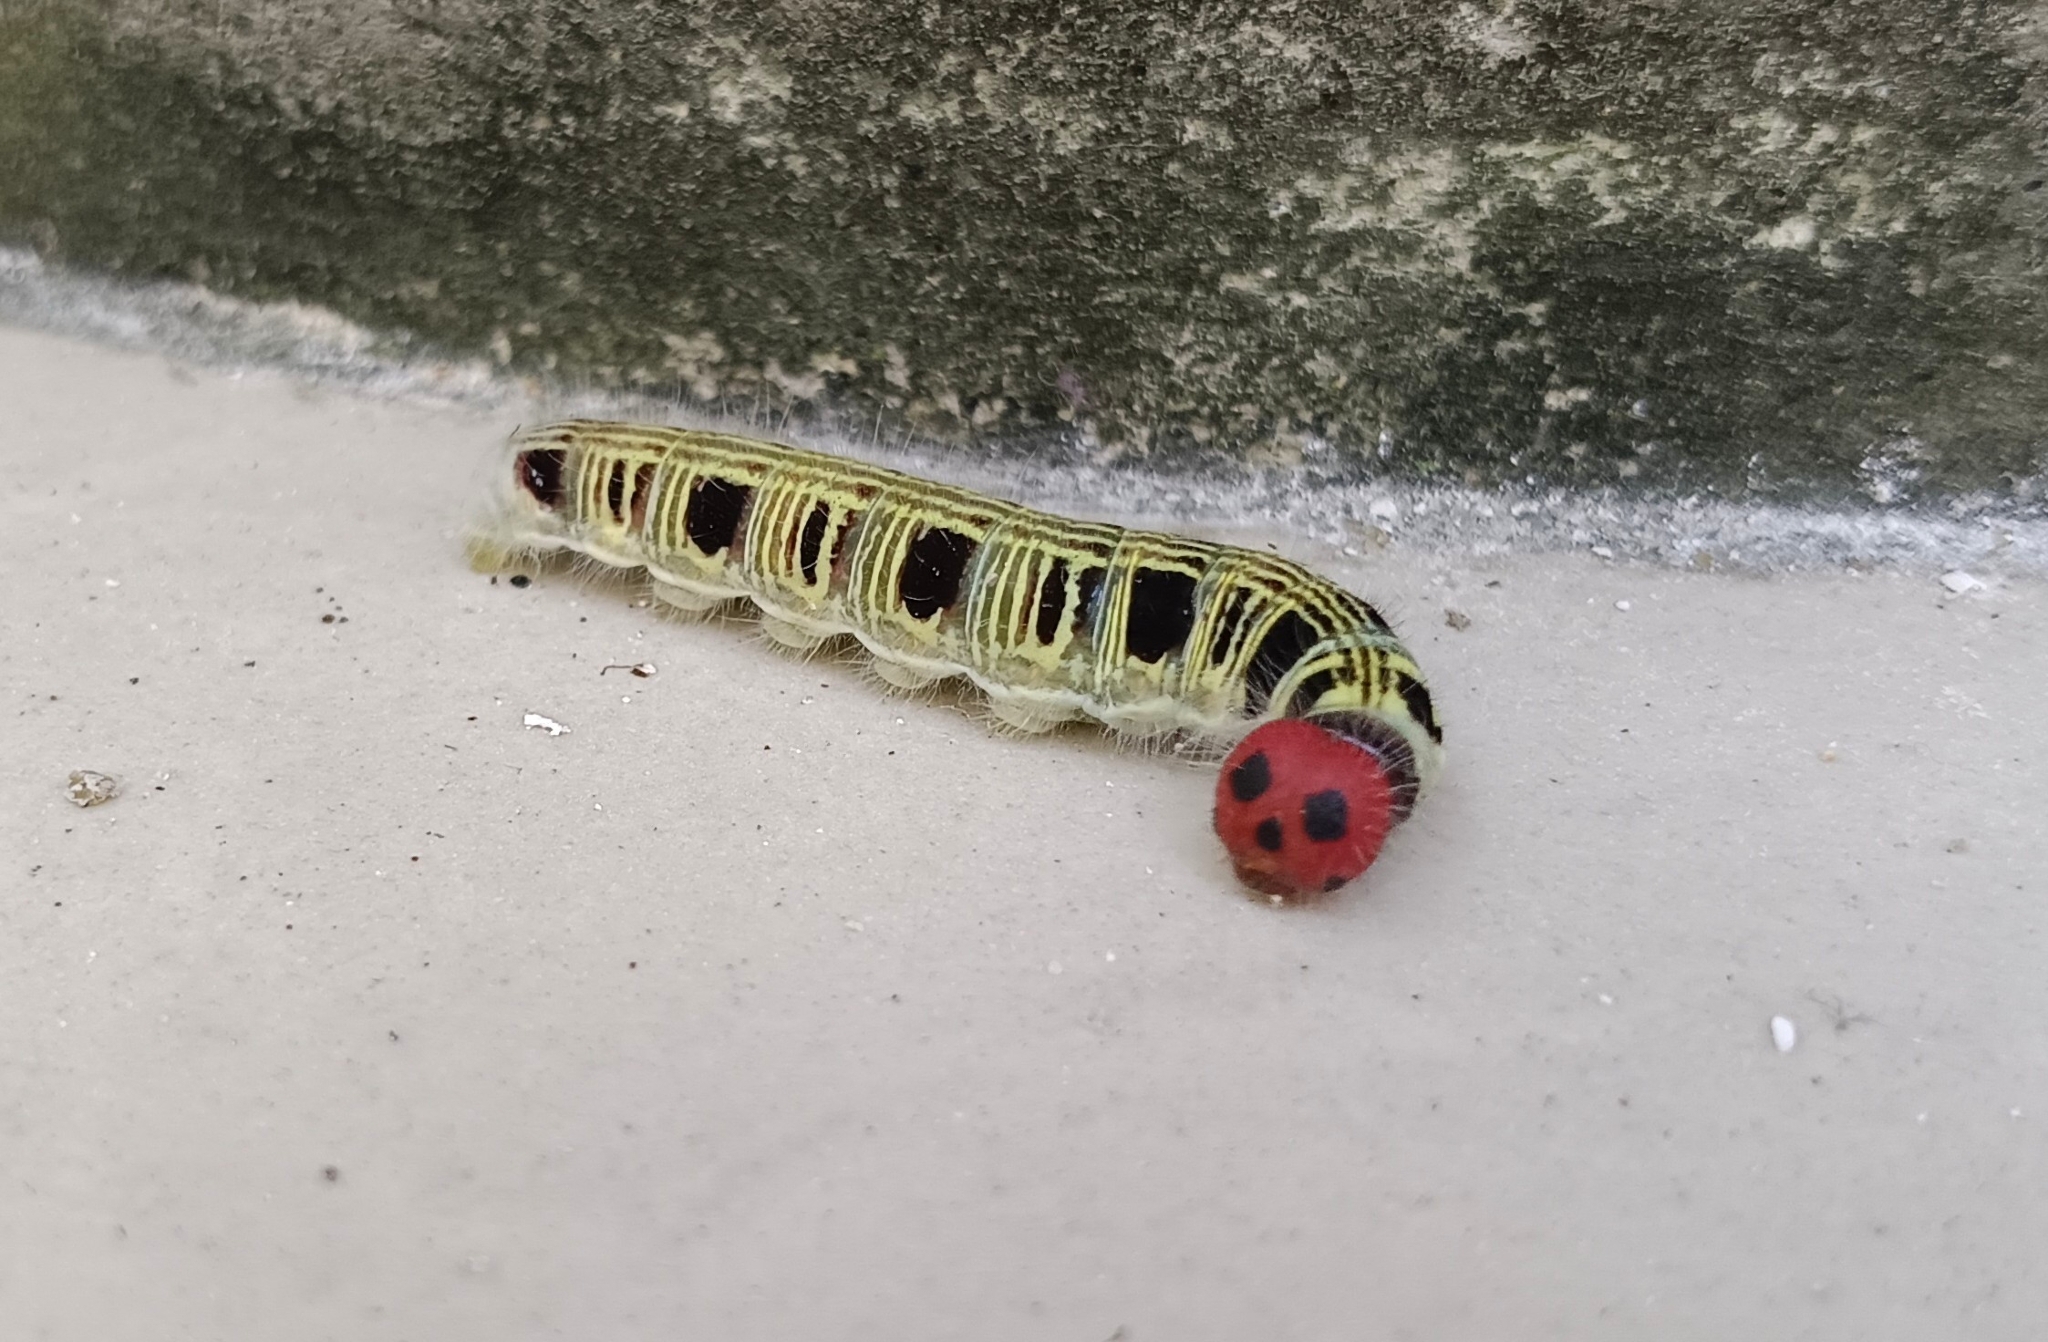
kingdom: Animalia
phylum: Arthropoda
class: Insecta
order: Lepidoptera
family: Hesperiidae
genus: Hasora
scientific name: Hasora badra
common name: Common awl
